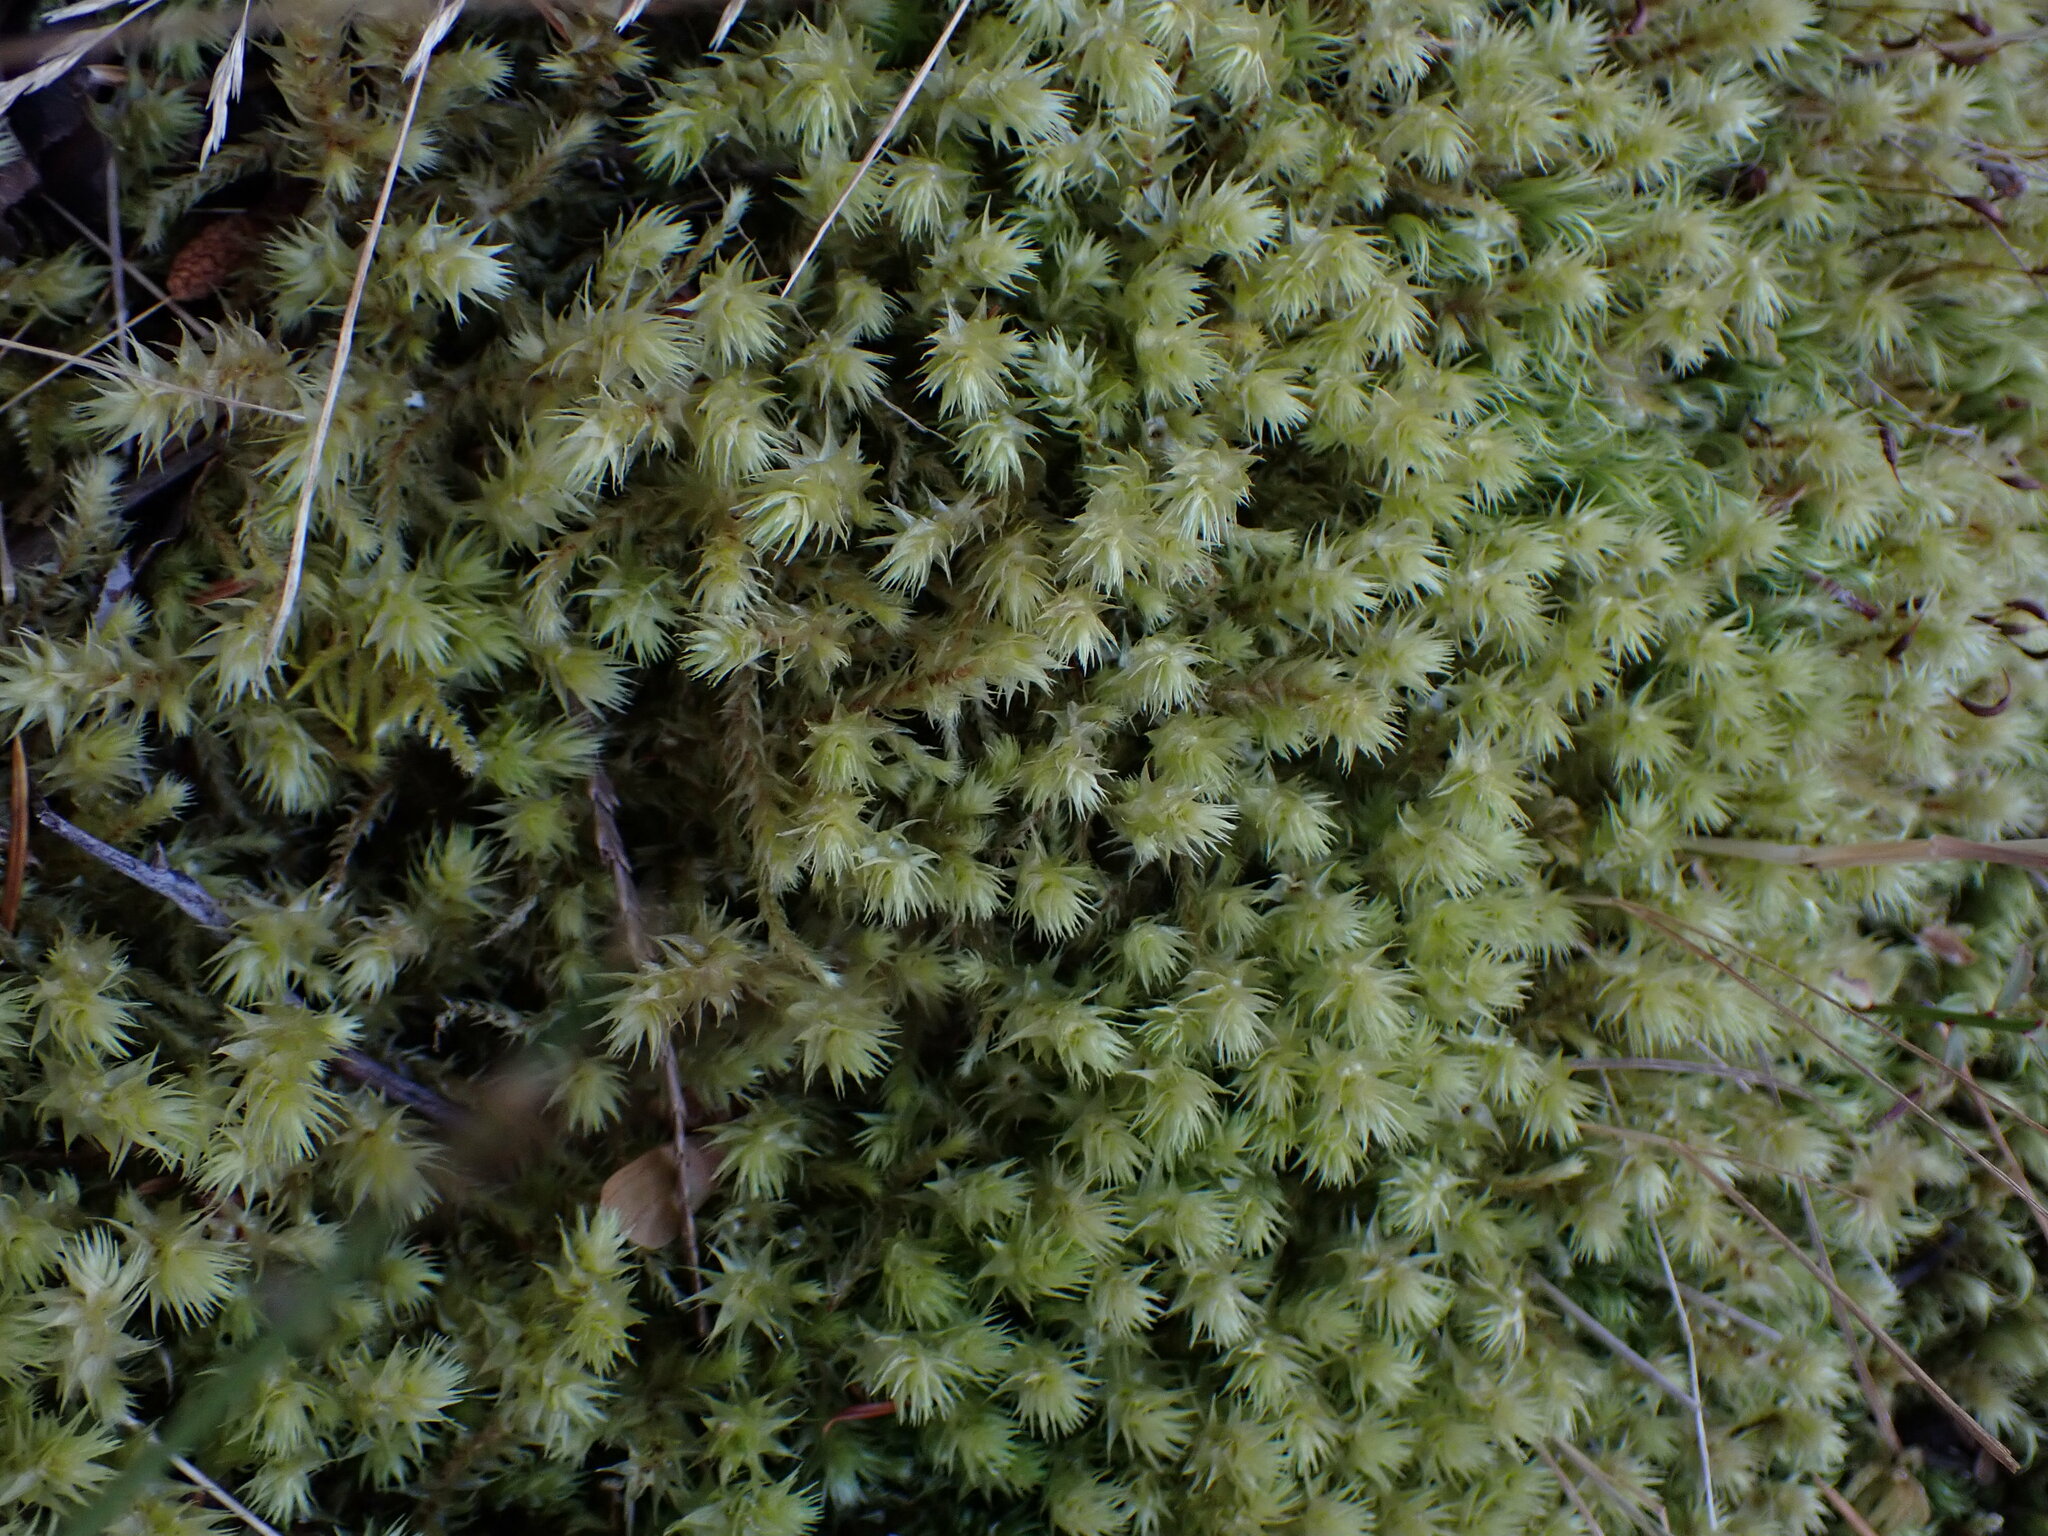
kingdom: Plantae
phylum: Bryophyta
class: Bryopsida
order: Hypnales
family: Hylocomiaceae
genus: Hylocomiadelphus
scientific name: Hylocomiadelphus triquetrus
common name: Rough goose neck moss
